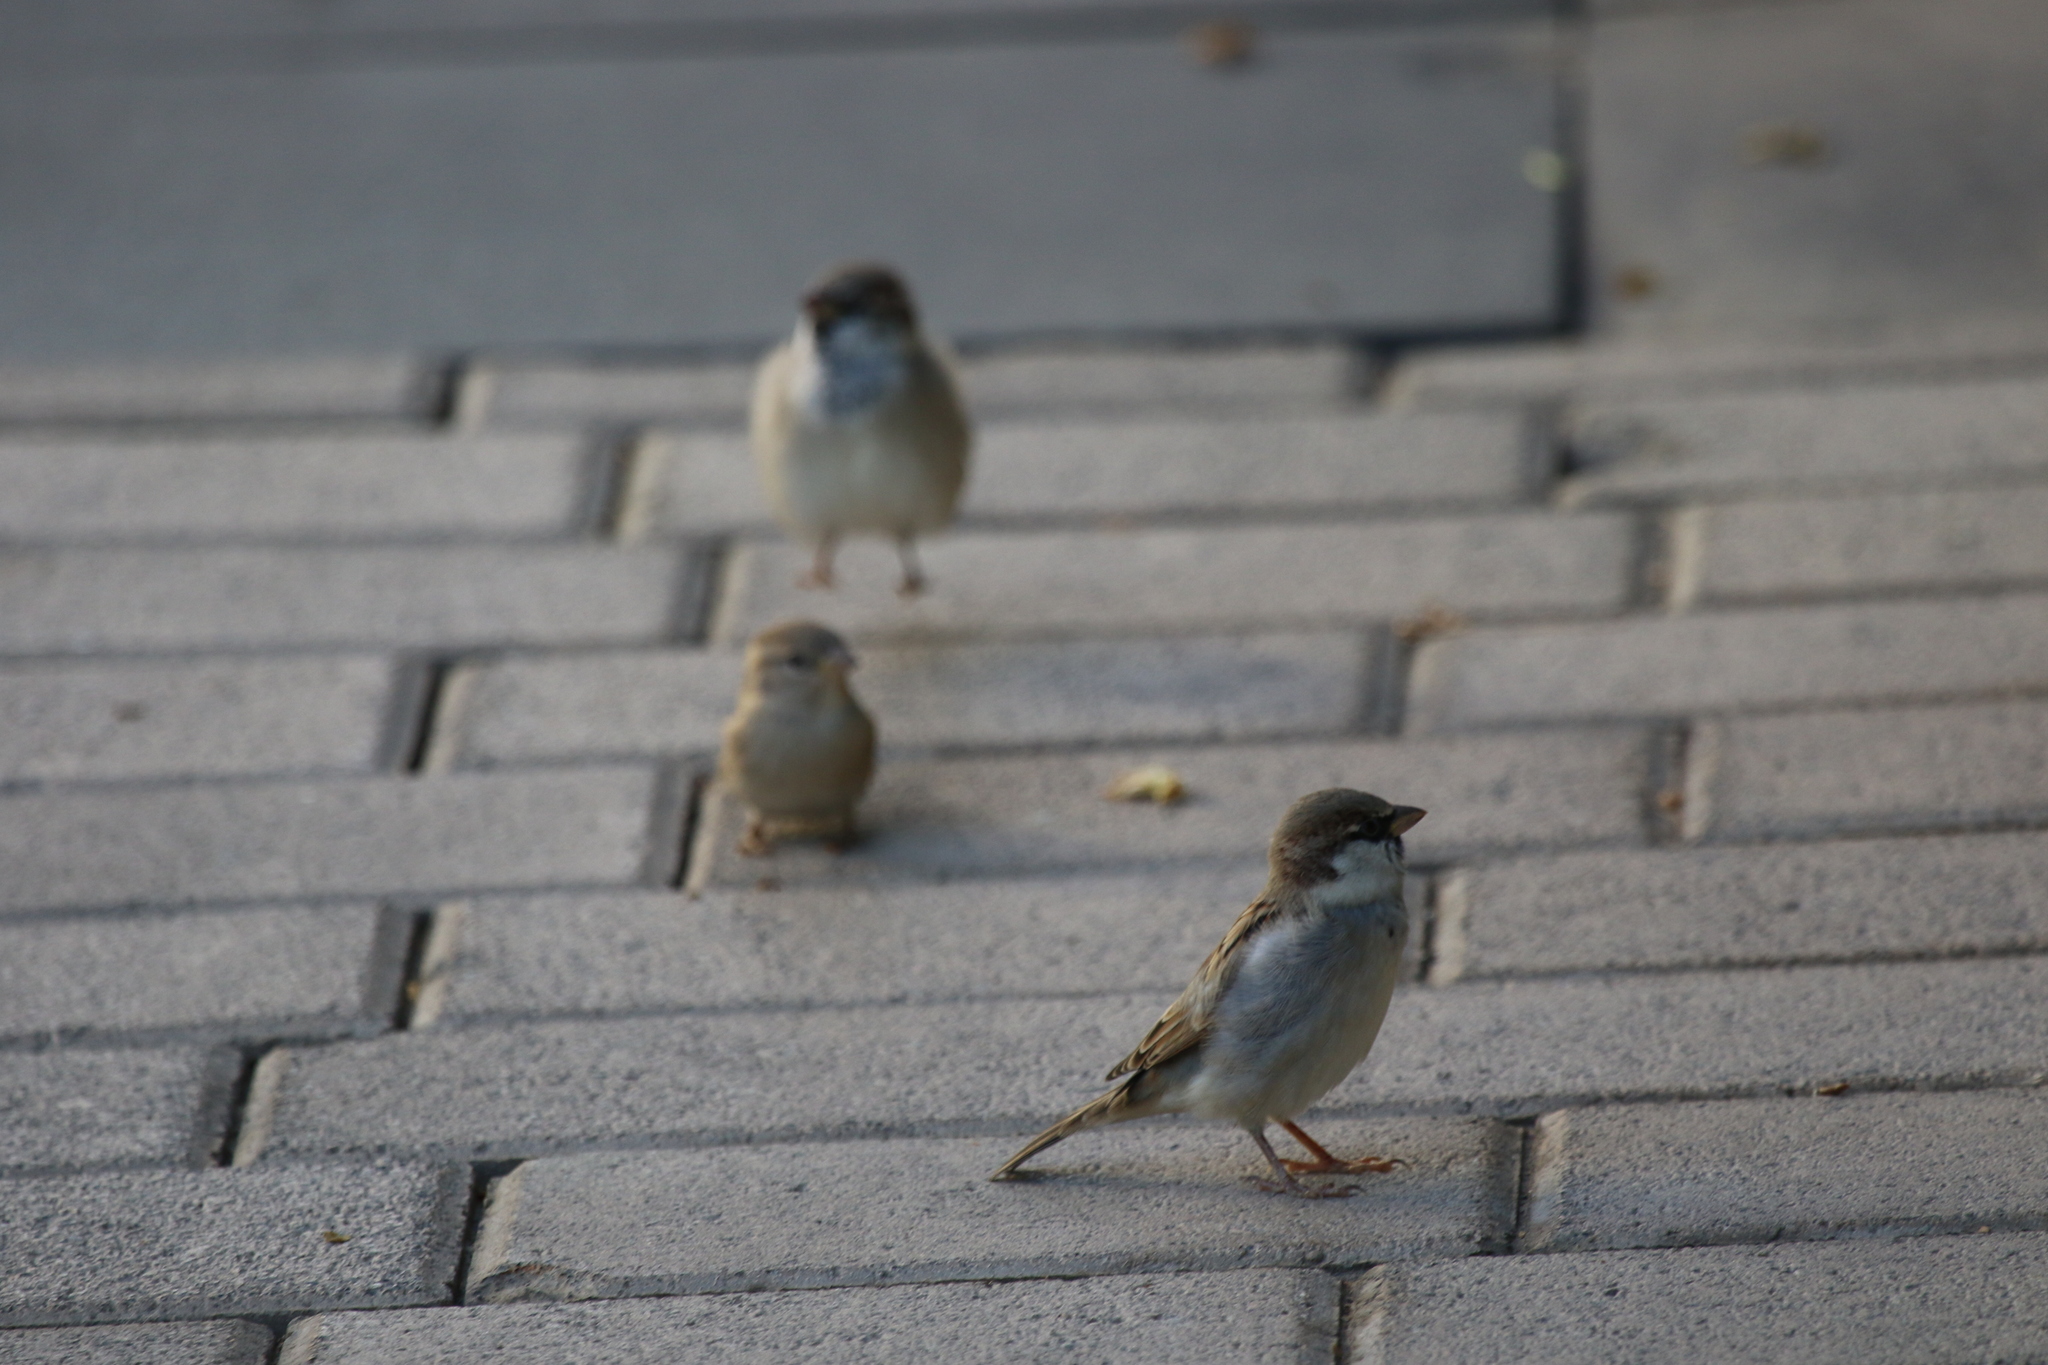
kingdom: Animalia
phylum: Chordata
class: Aves
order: Passeriformes
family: Passeridae
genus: Passer
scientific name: Passer domesticus
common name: House sparrow
